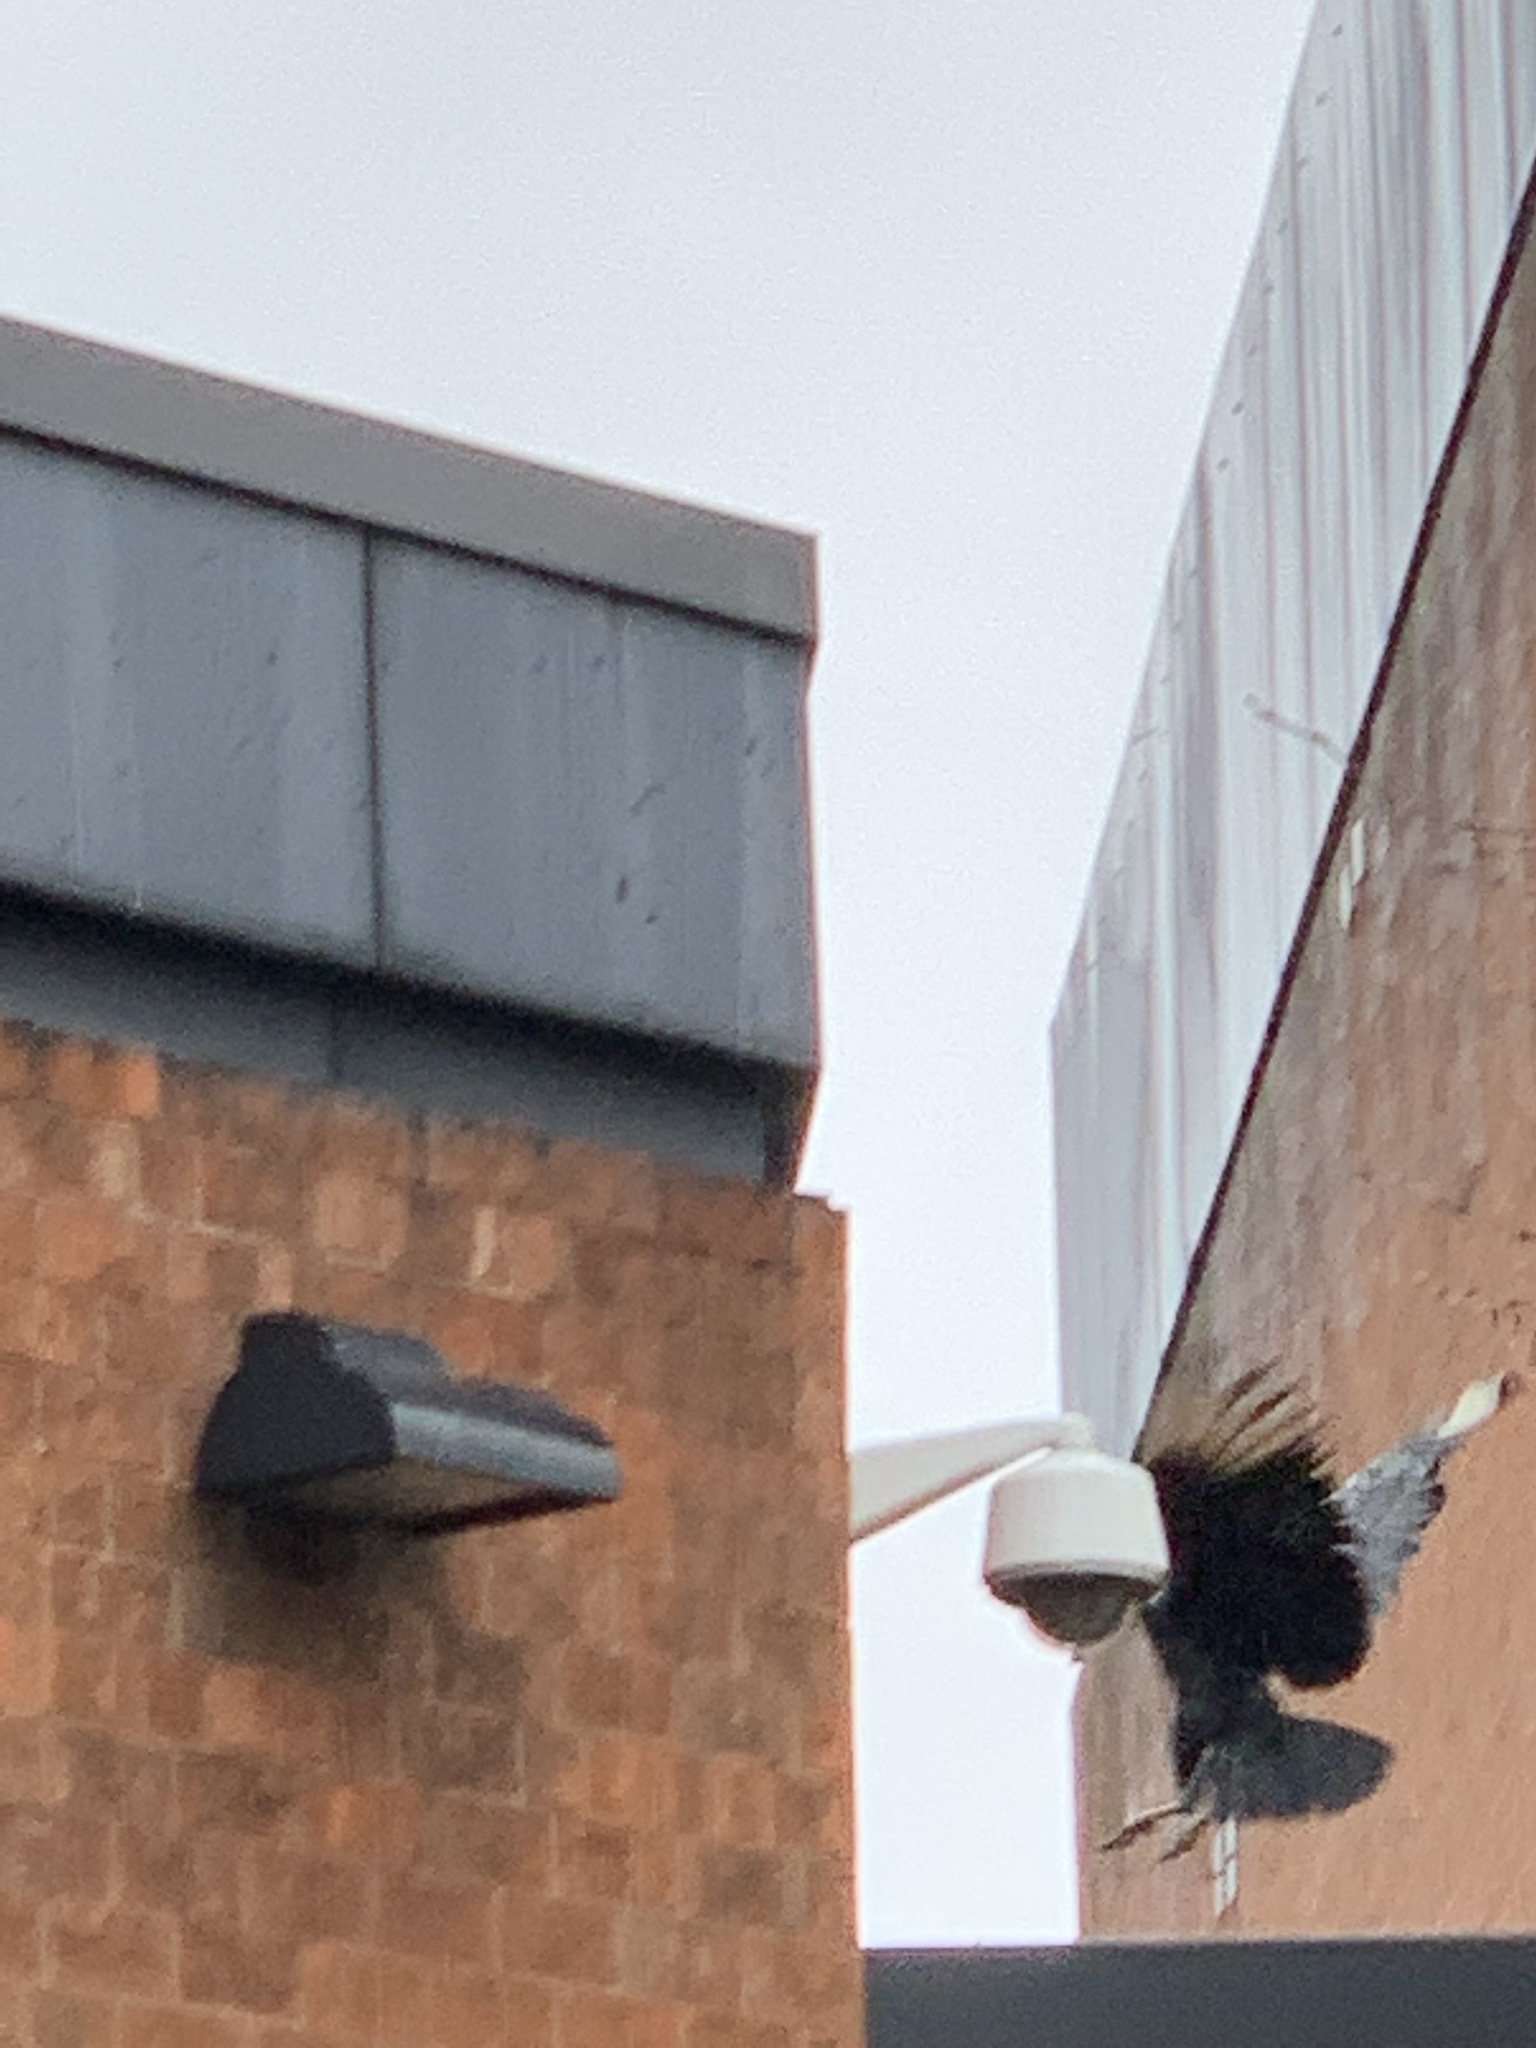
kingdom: Animalia
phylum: Chordata
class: Aves
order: Accipitriformes
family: Cathartidae
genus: Coragyps
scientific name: Coragyps atratus
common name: Black vulture
